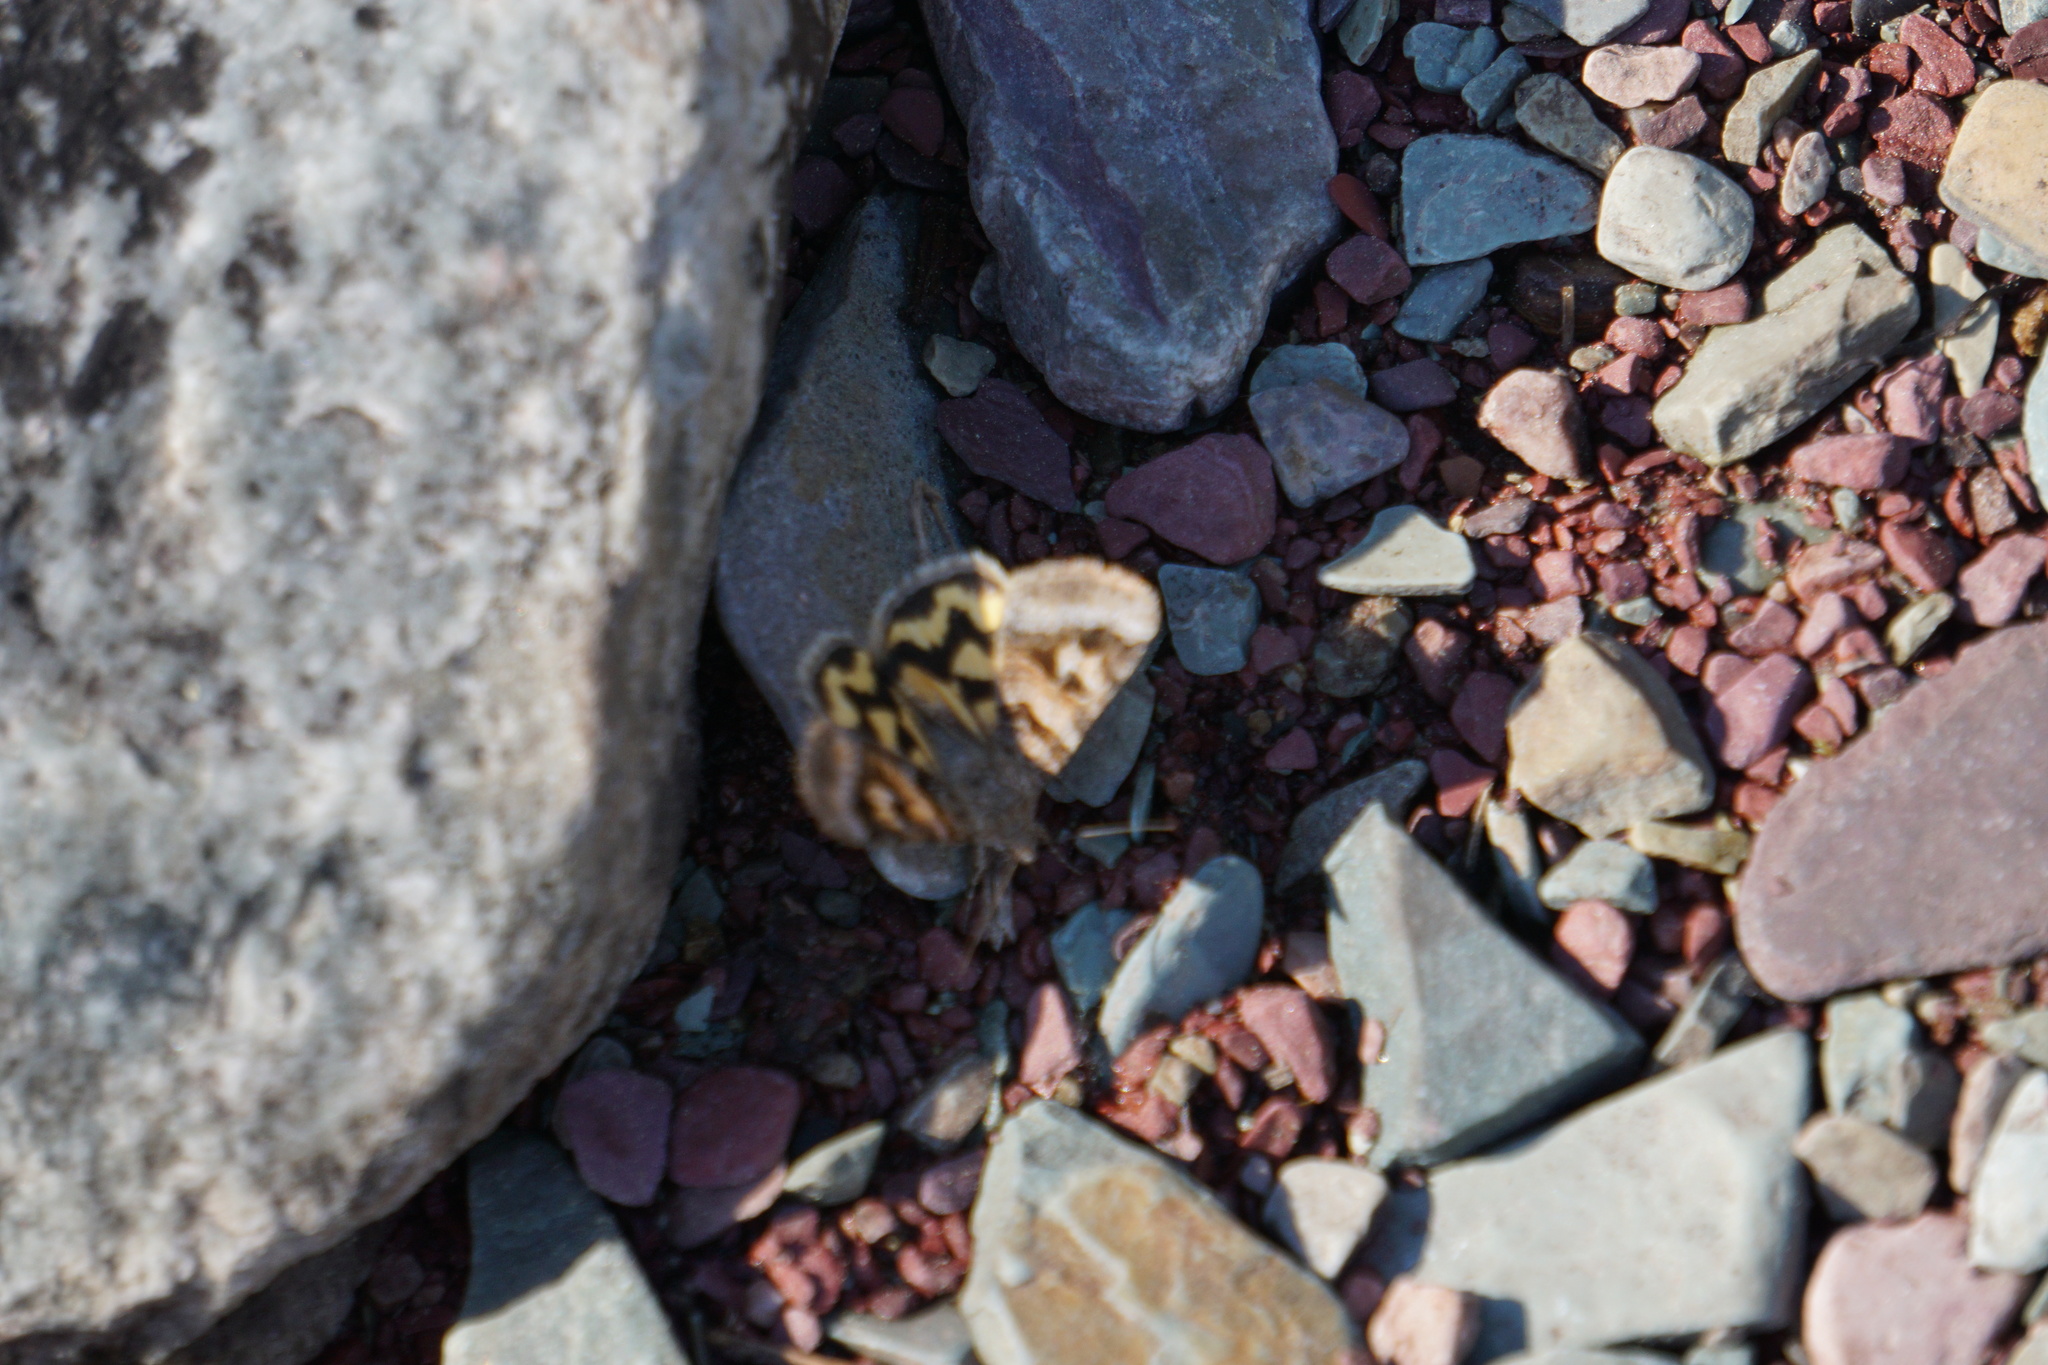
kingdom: Animalia
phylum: Arthropoda
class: Insecta
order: Lepidoptera
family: Erebidae
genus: Drasteria
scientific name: Drasteria adumbrata
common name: Shadowy arches
